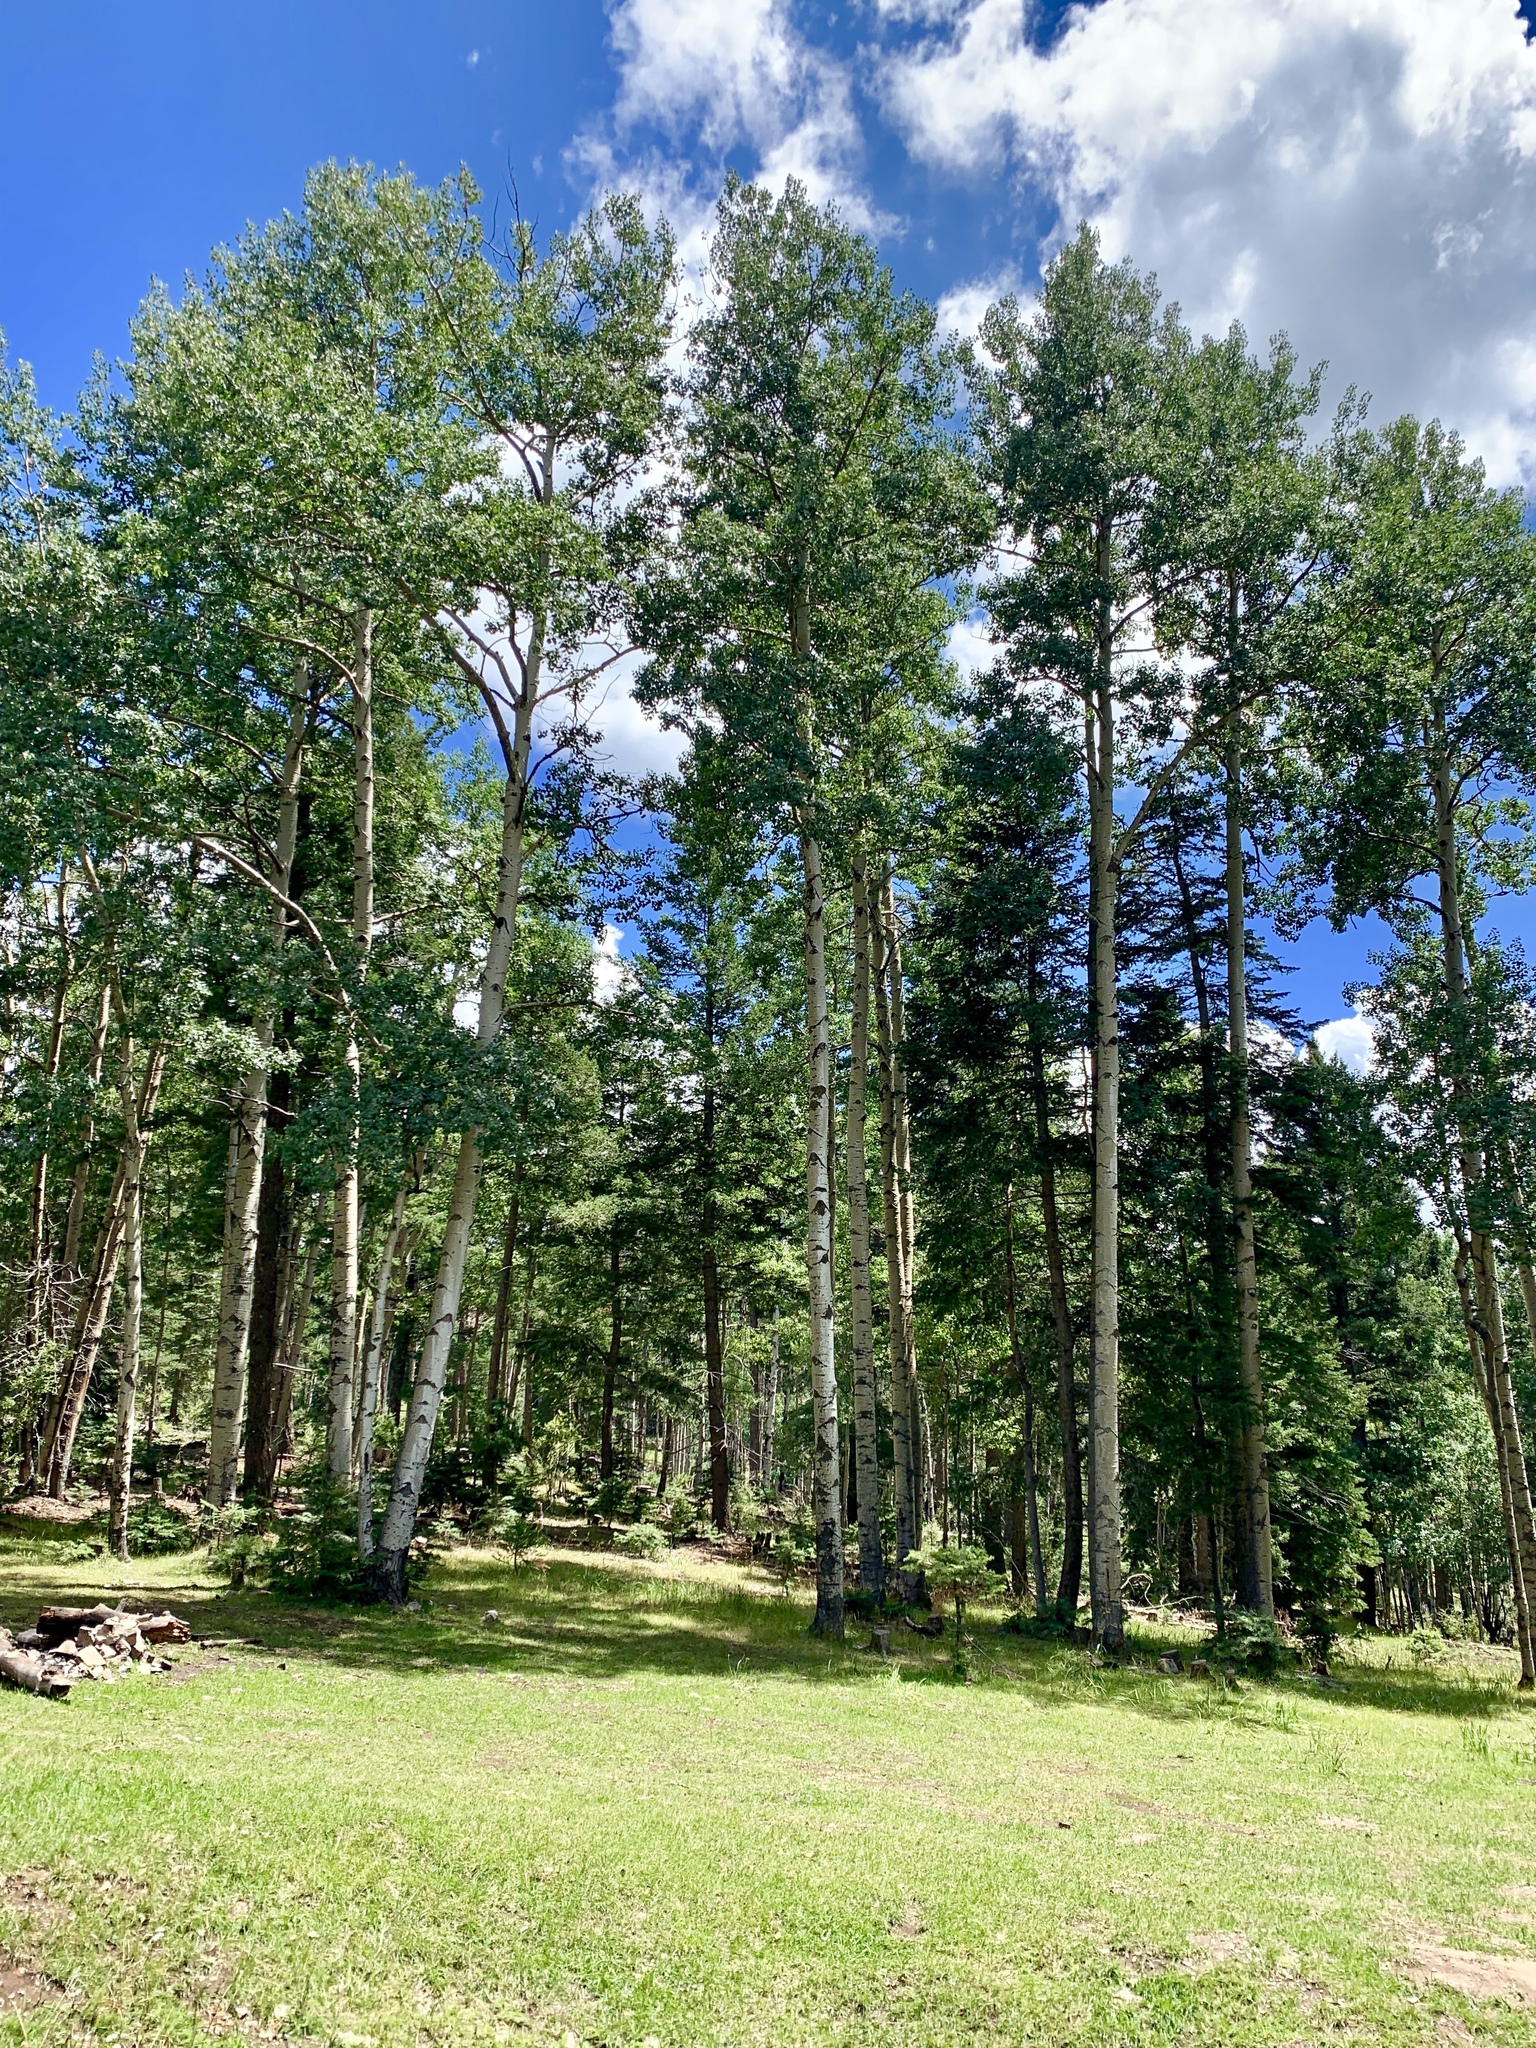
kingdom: Plantae
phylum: Tracheophyta
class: Magnoliopsida
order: Malpighiales
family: Salicaceae
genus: Populus
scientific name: Populus tremuloides
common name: Quaking aspen
